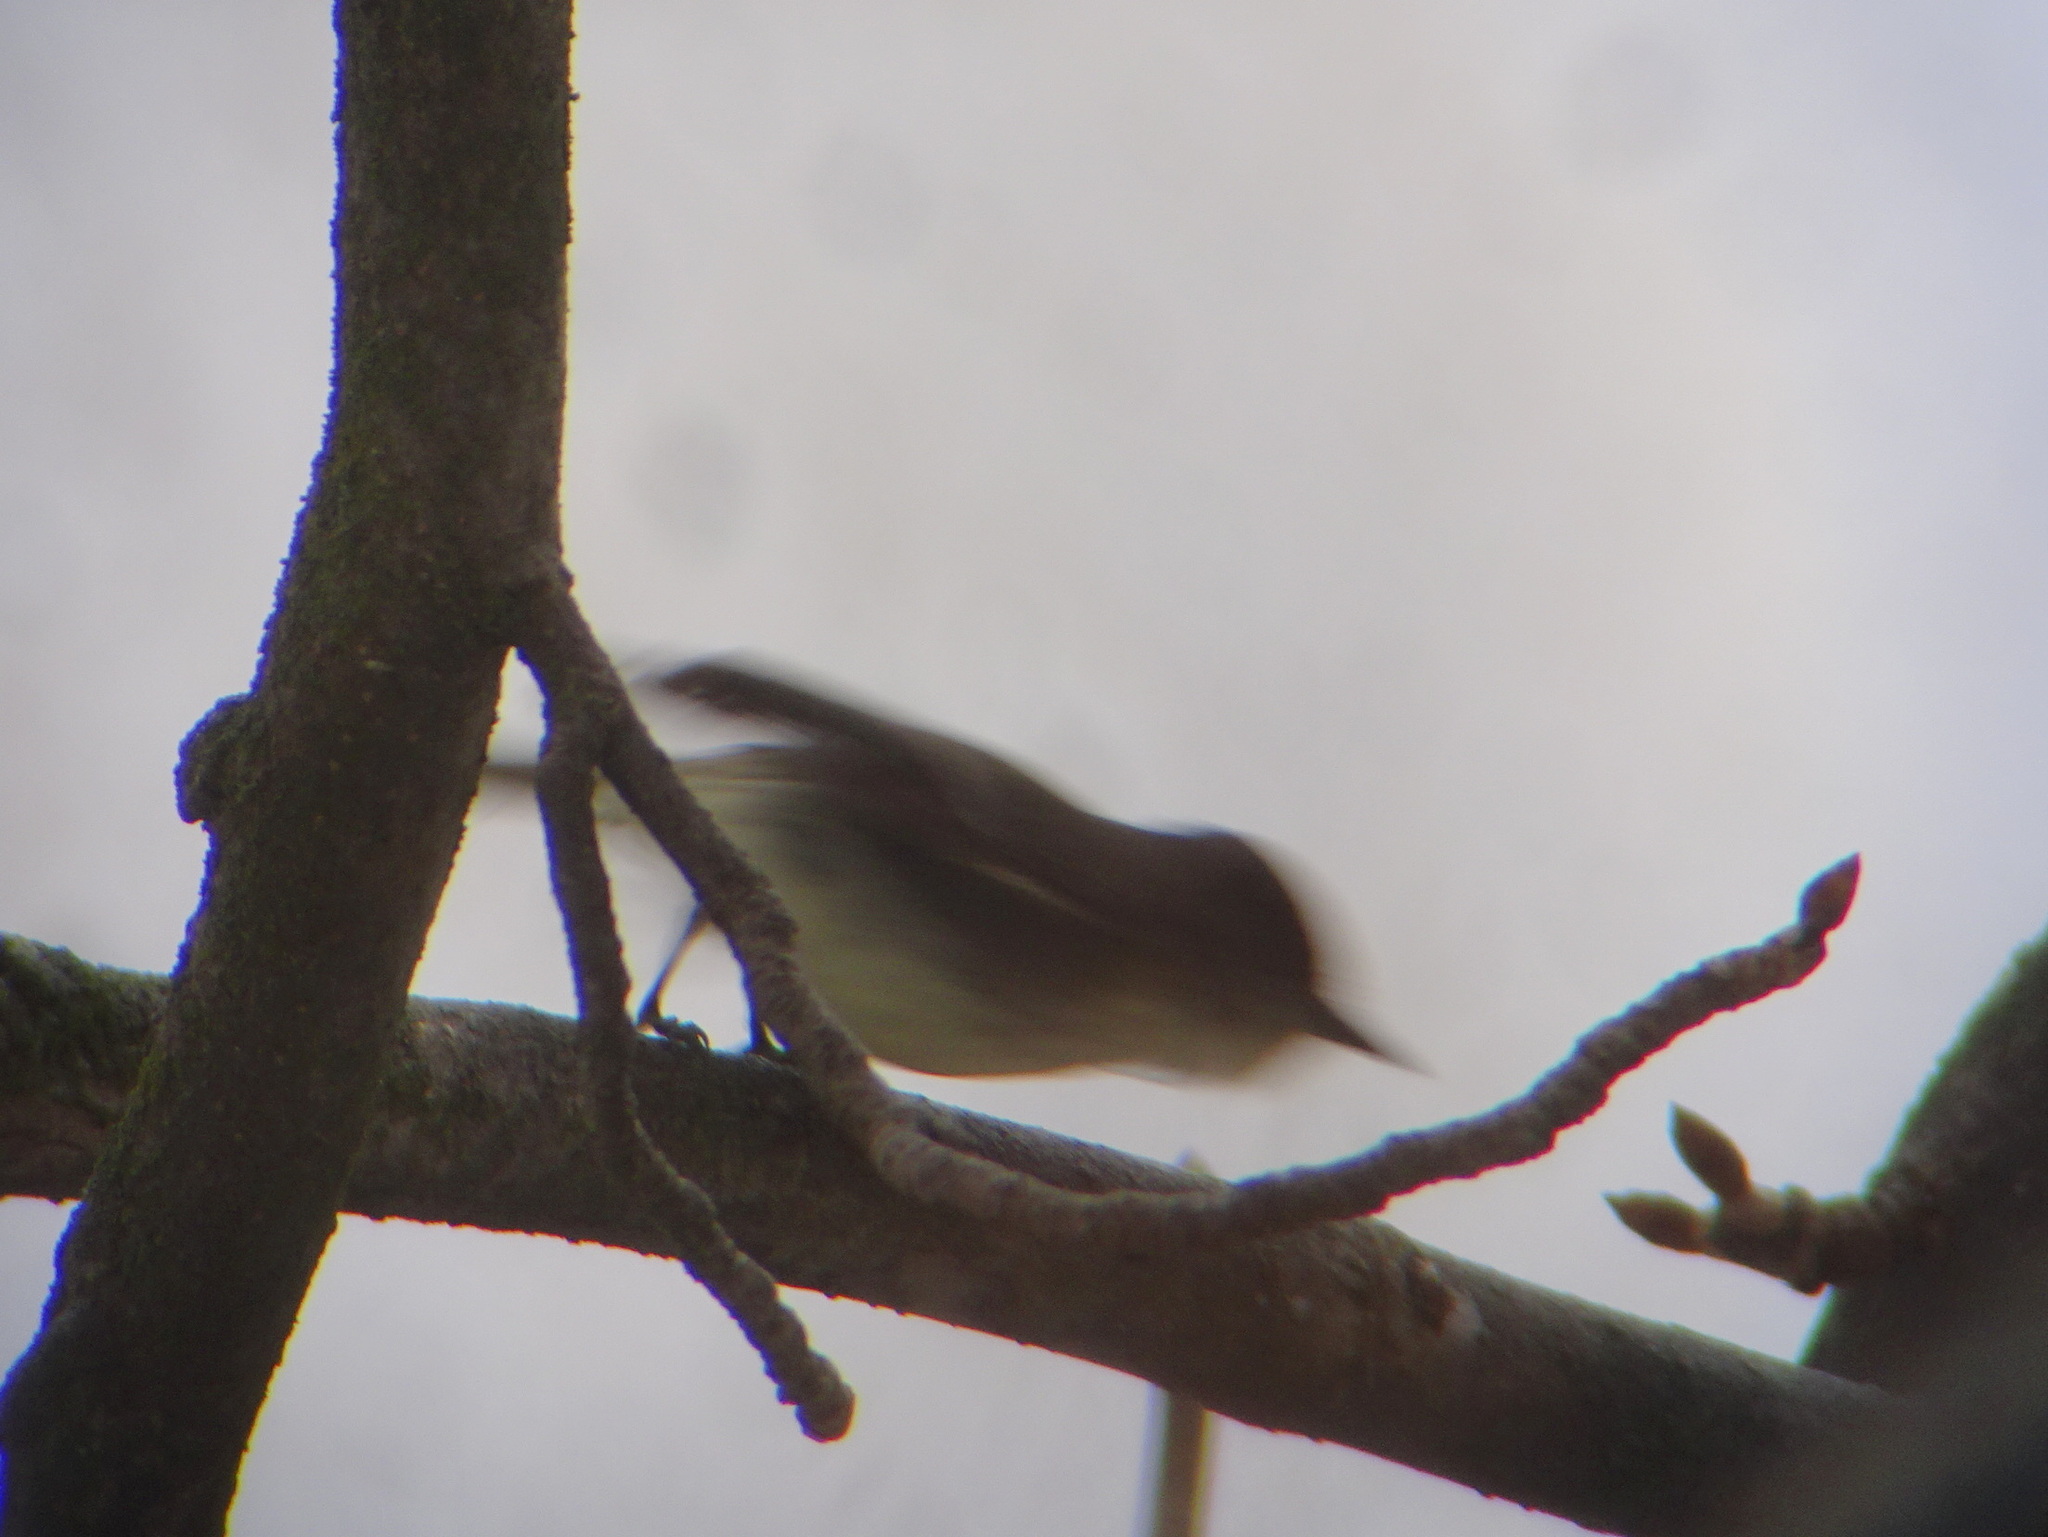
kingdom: Animalia
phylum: Chordata
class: Aves
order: Passeriformes
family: Tyrannidae
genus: Sayornis
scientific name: Sayornis phoebe
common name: Eastern phoebe
